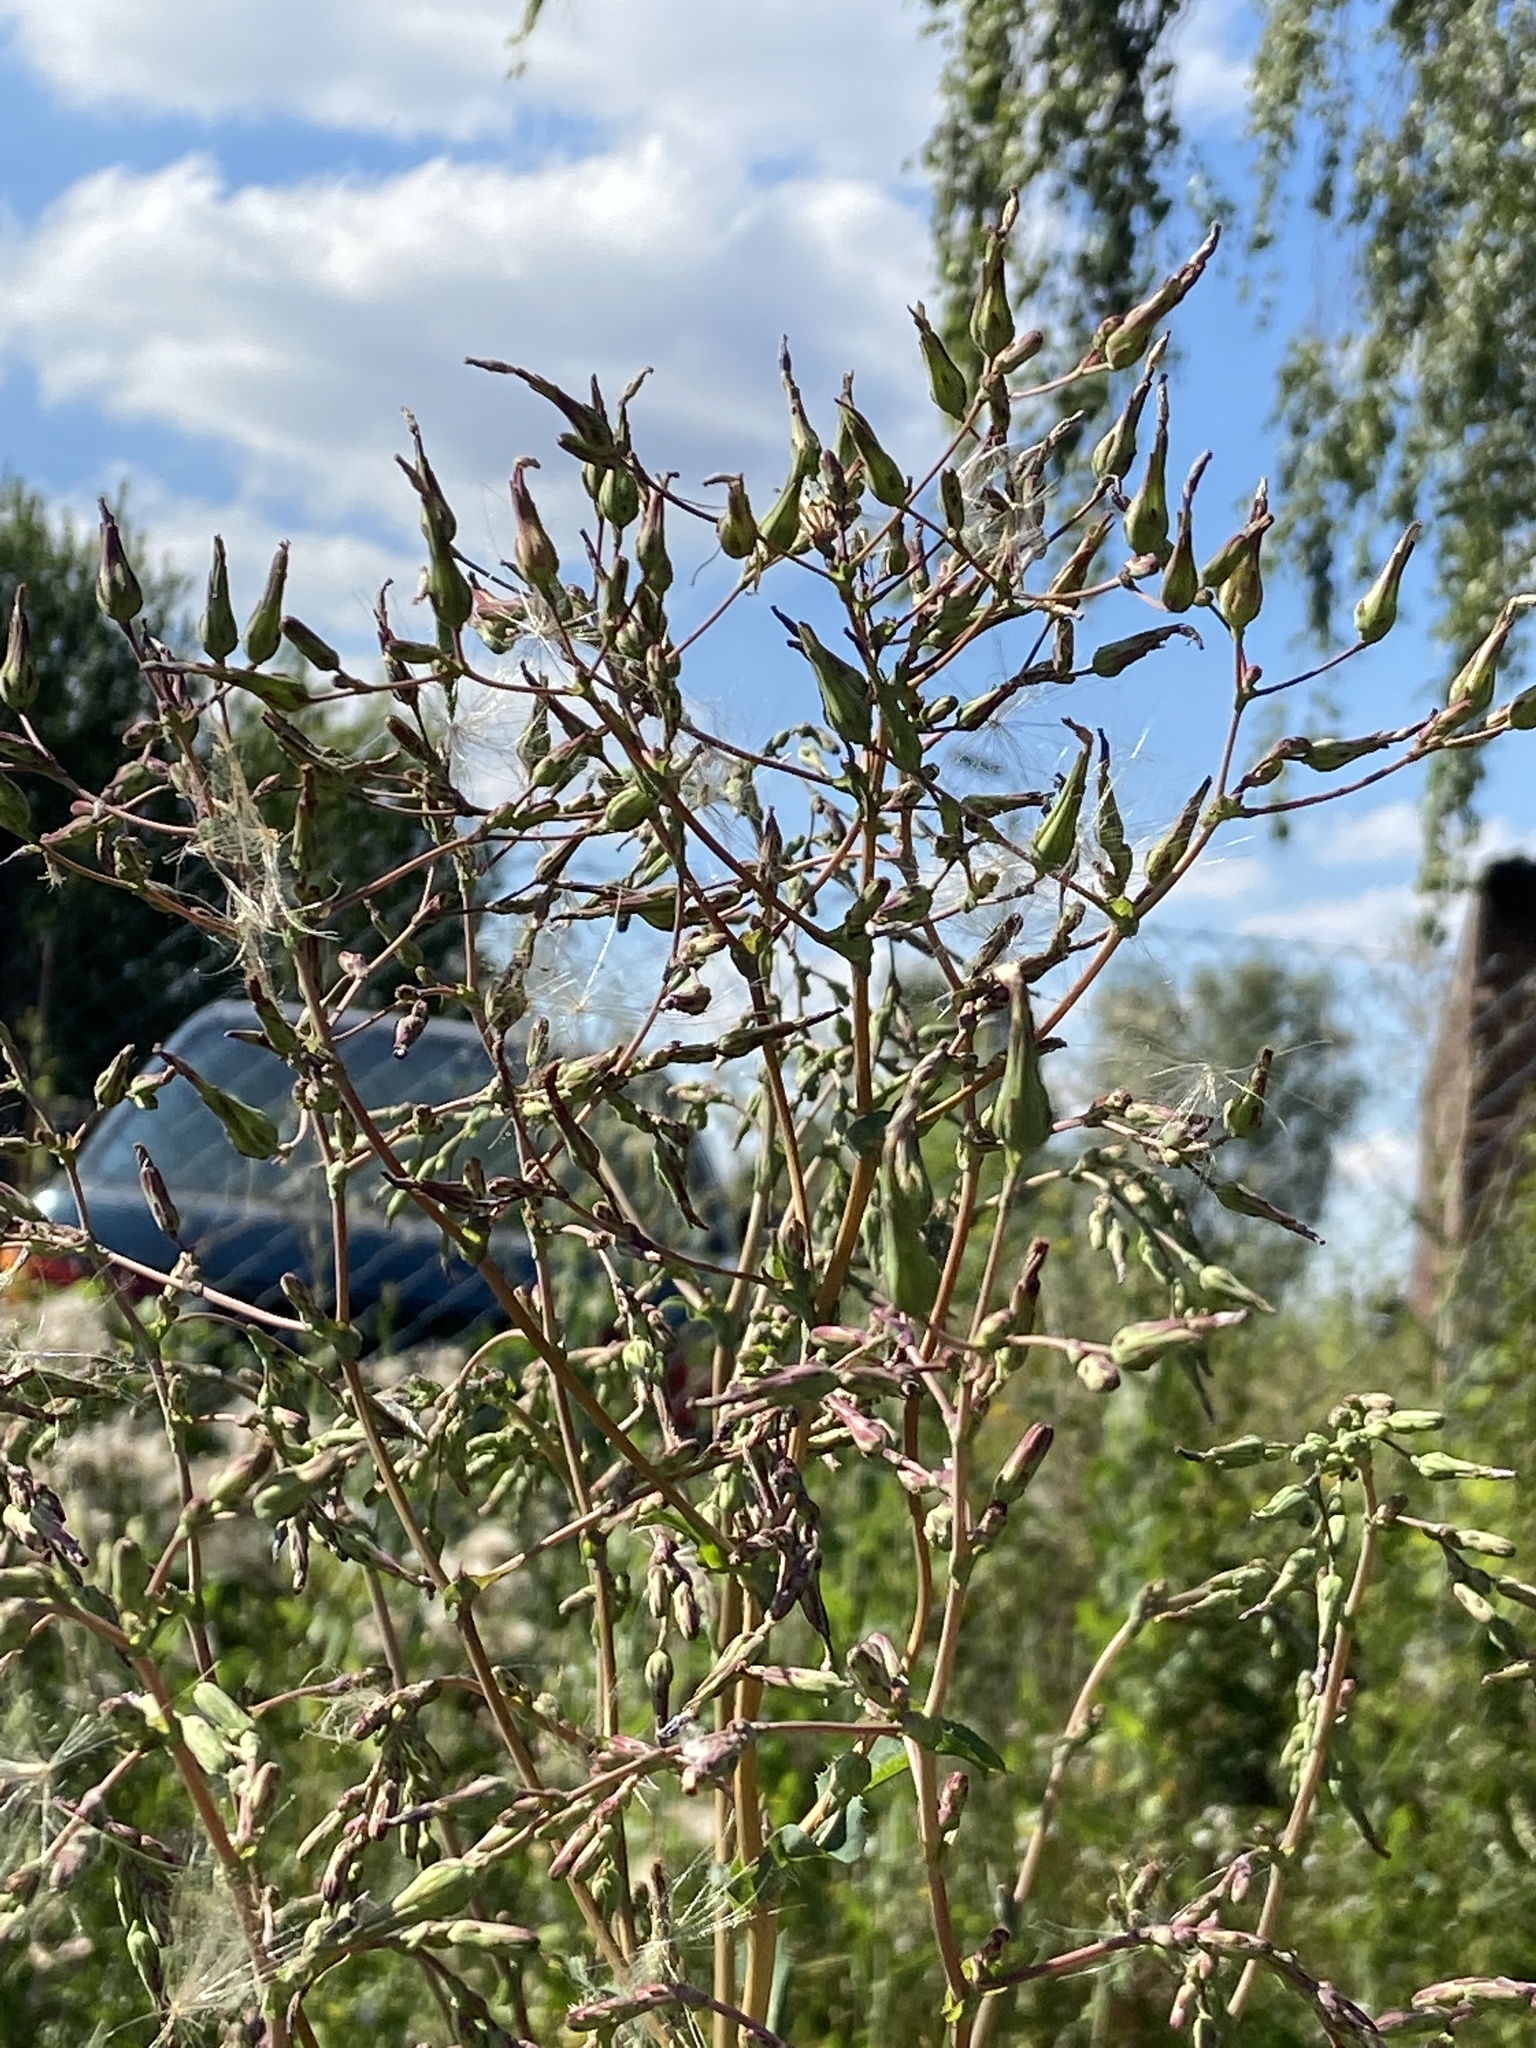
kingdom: Plantae
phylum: Tracheophyta
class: Magnoliopsida
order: Asterales
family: Asteraceae
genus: Lactuca
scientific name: Lactuca serriola
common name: Prickly lettuce
